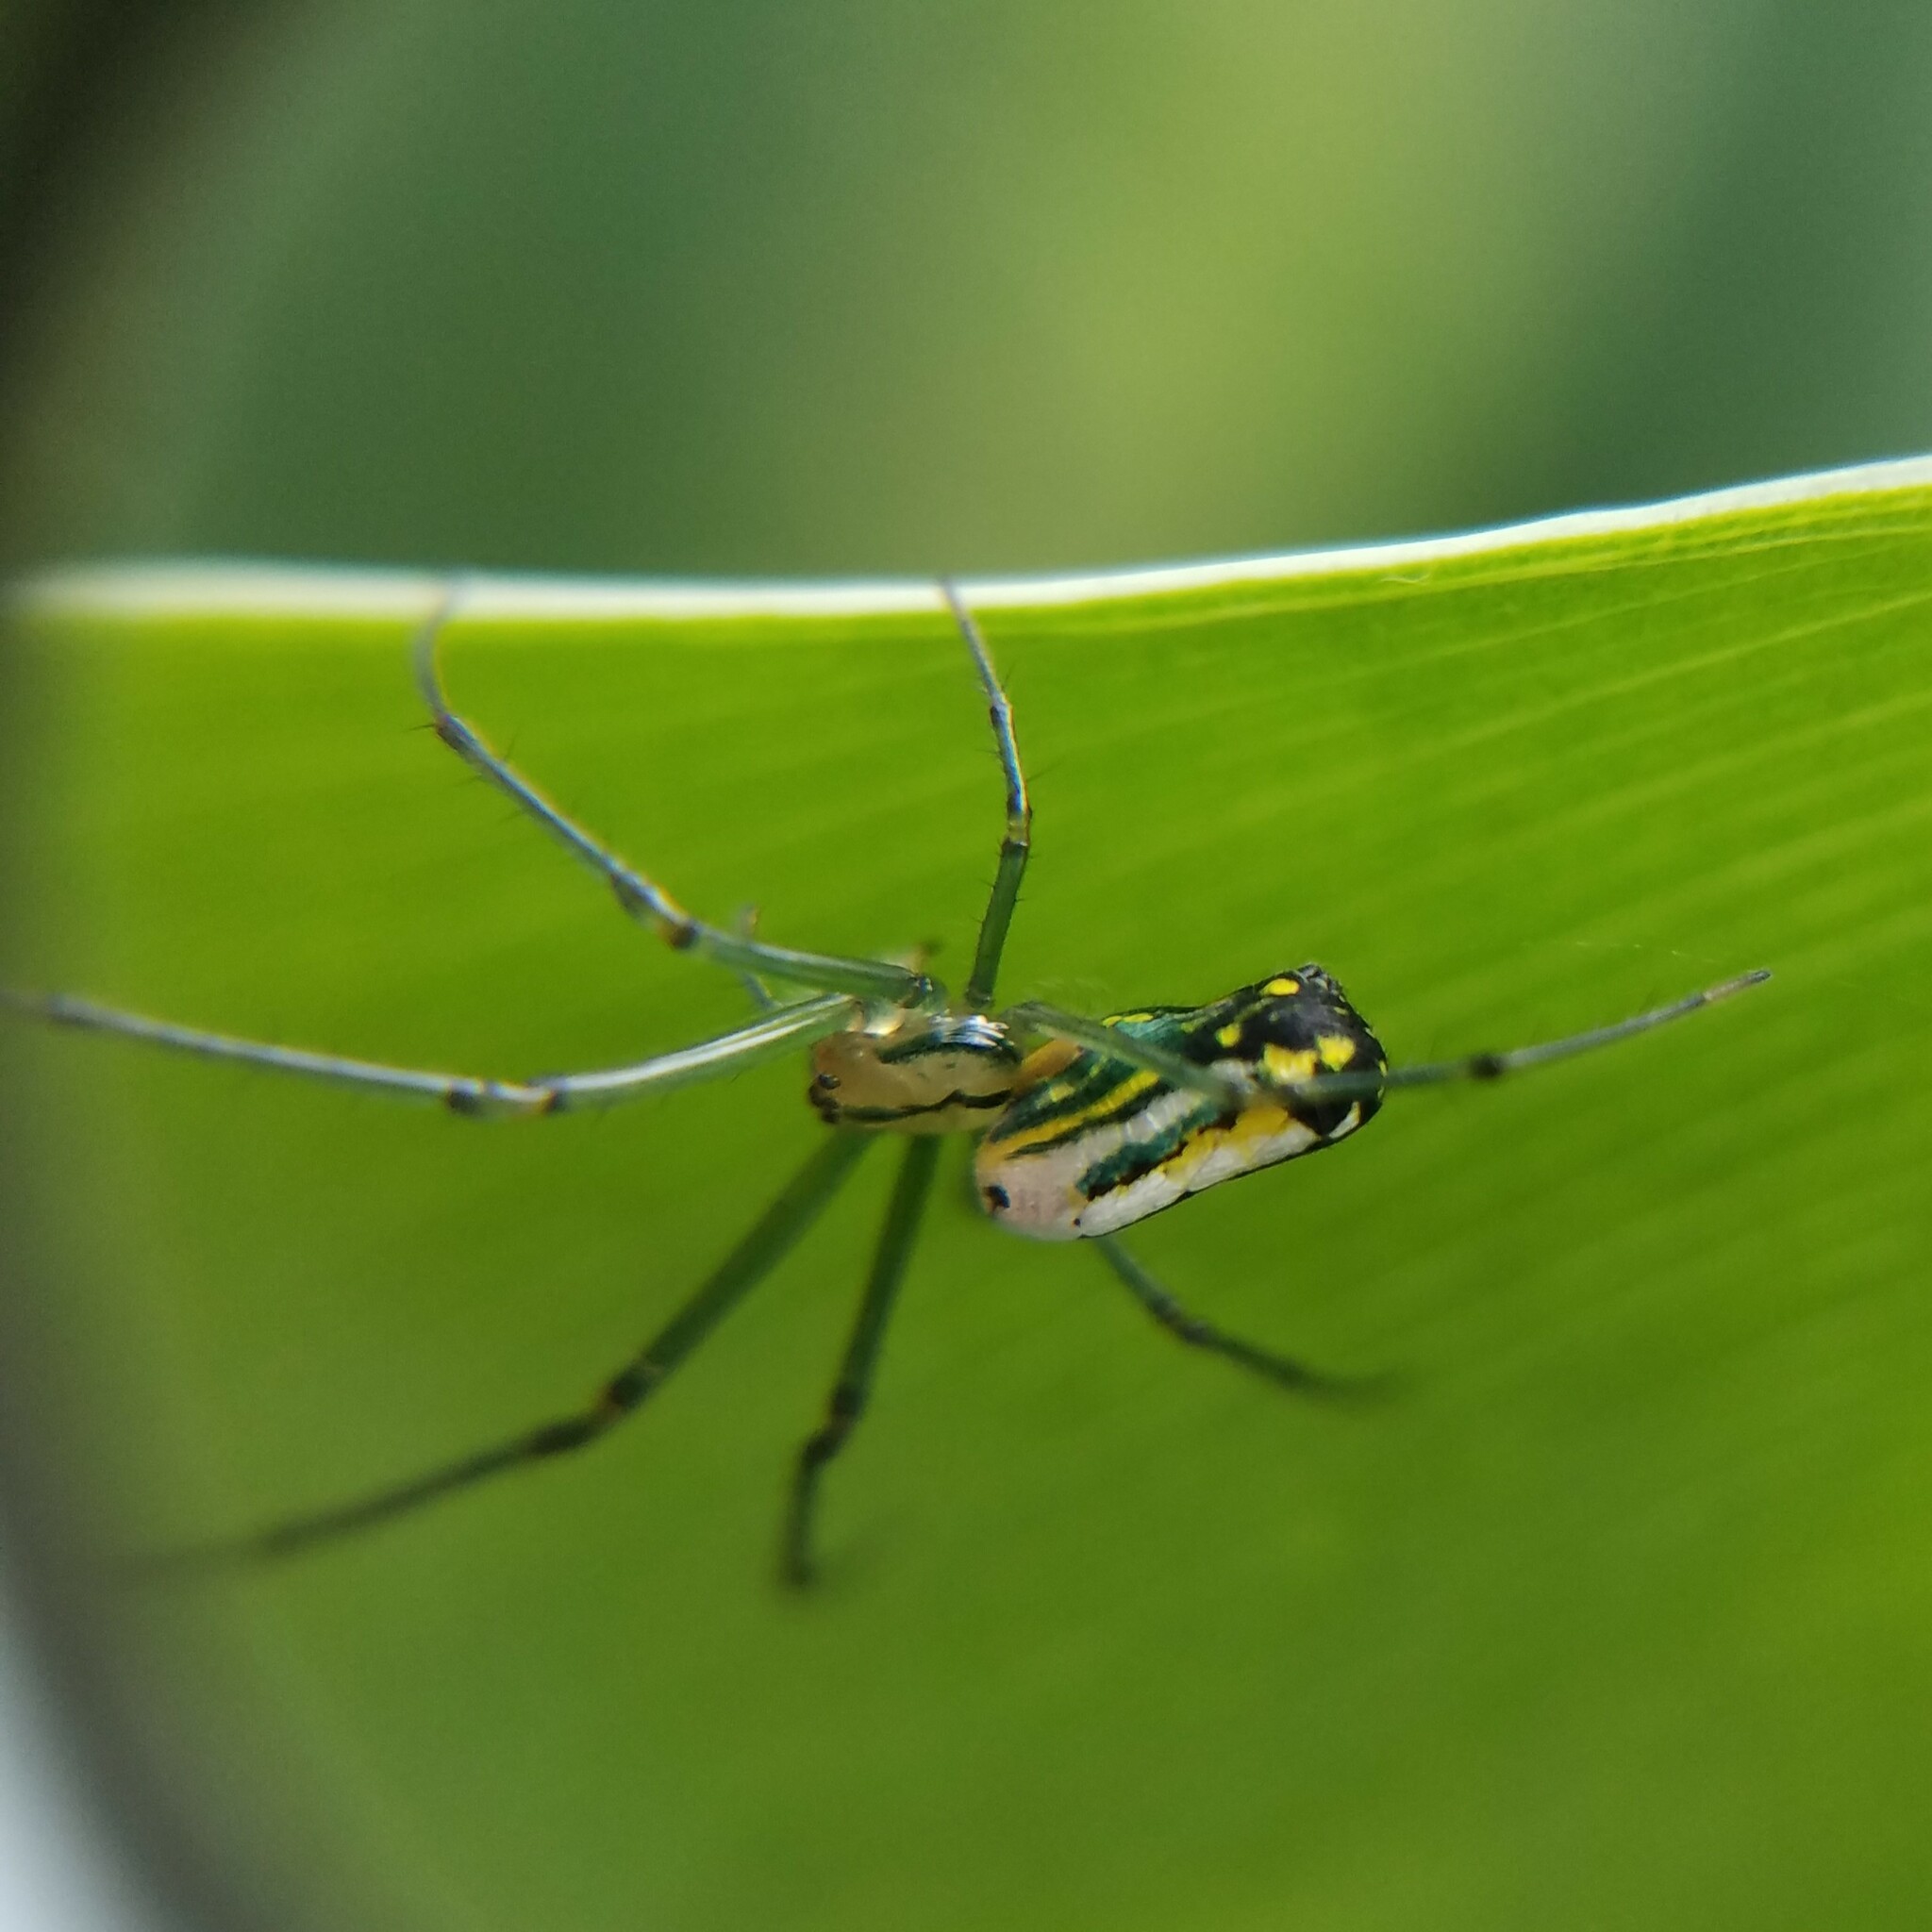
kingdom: Animalia
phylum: Arthropoda
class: Arachnida
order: Araneae
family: Tetragnathidae
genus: Leucauge
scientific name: Leucauge venusta
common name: Longjawed orb weavers
